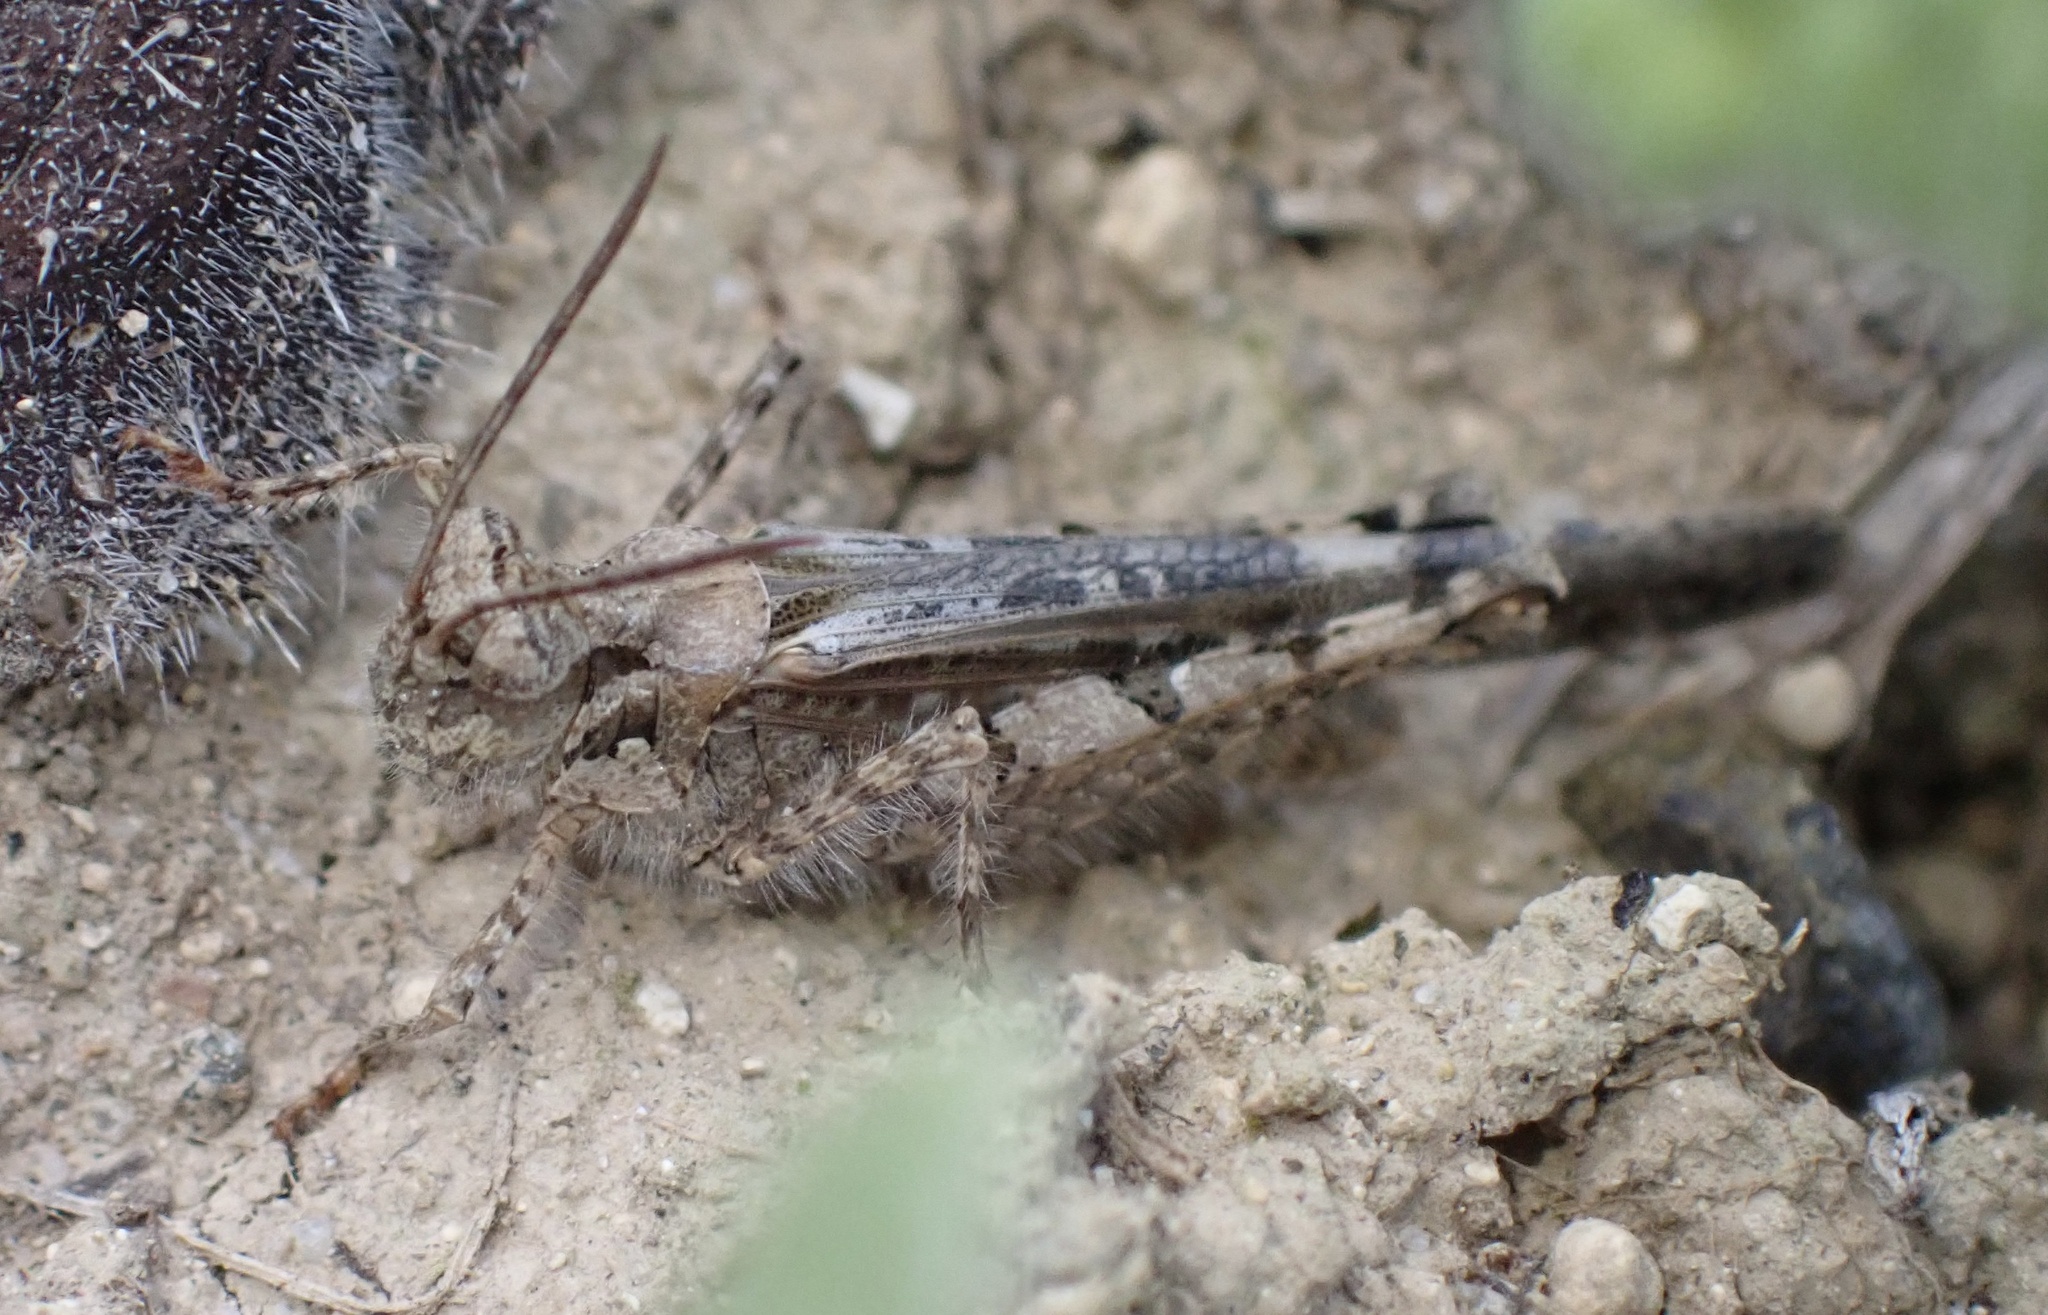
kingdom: Animalia
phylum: Arthropoda
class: Insecta
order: Orthoptera
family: Acrididae
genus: Acrotylus
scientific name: Acrotylus patruelis
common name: Slender burrowing grasshopper
